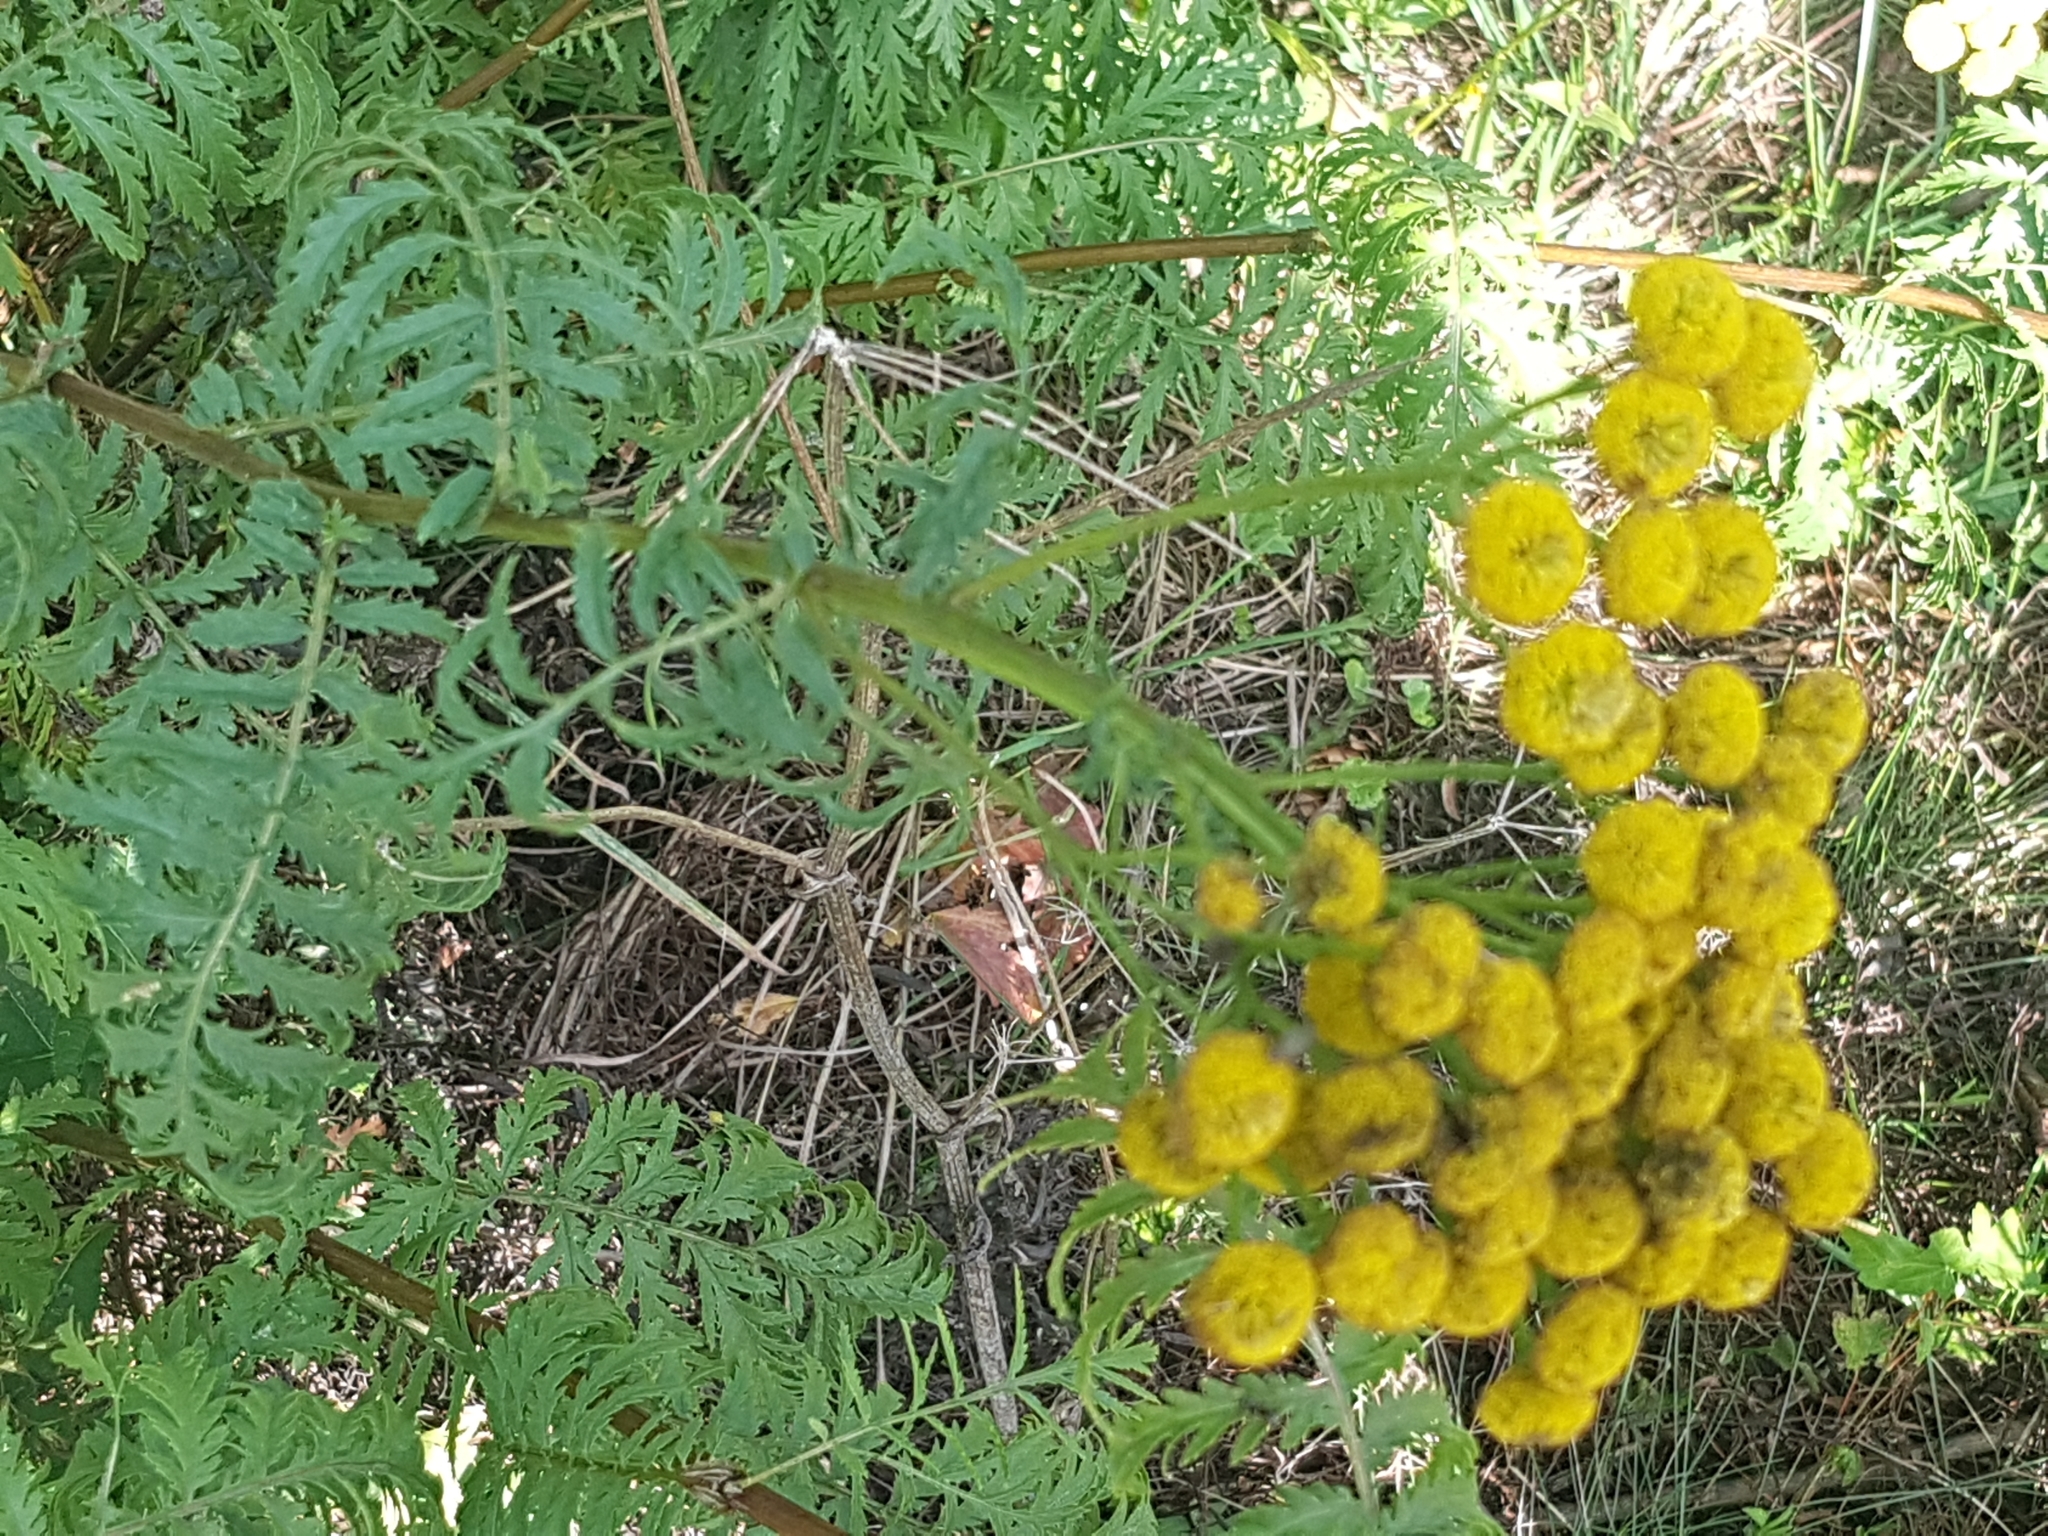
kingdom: Plantae
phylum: Tracheophyta
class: Magnoliopsida
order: Asterales
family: Asteraceae
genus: Tanacetum
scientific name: Tanacetum vulgare
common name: Common tansy
